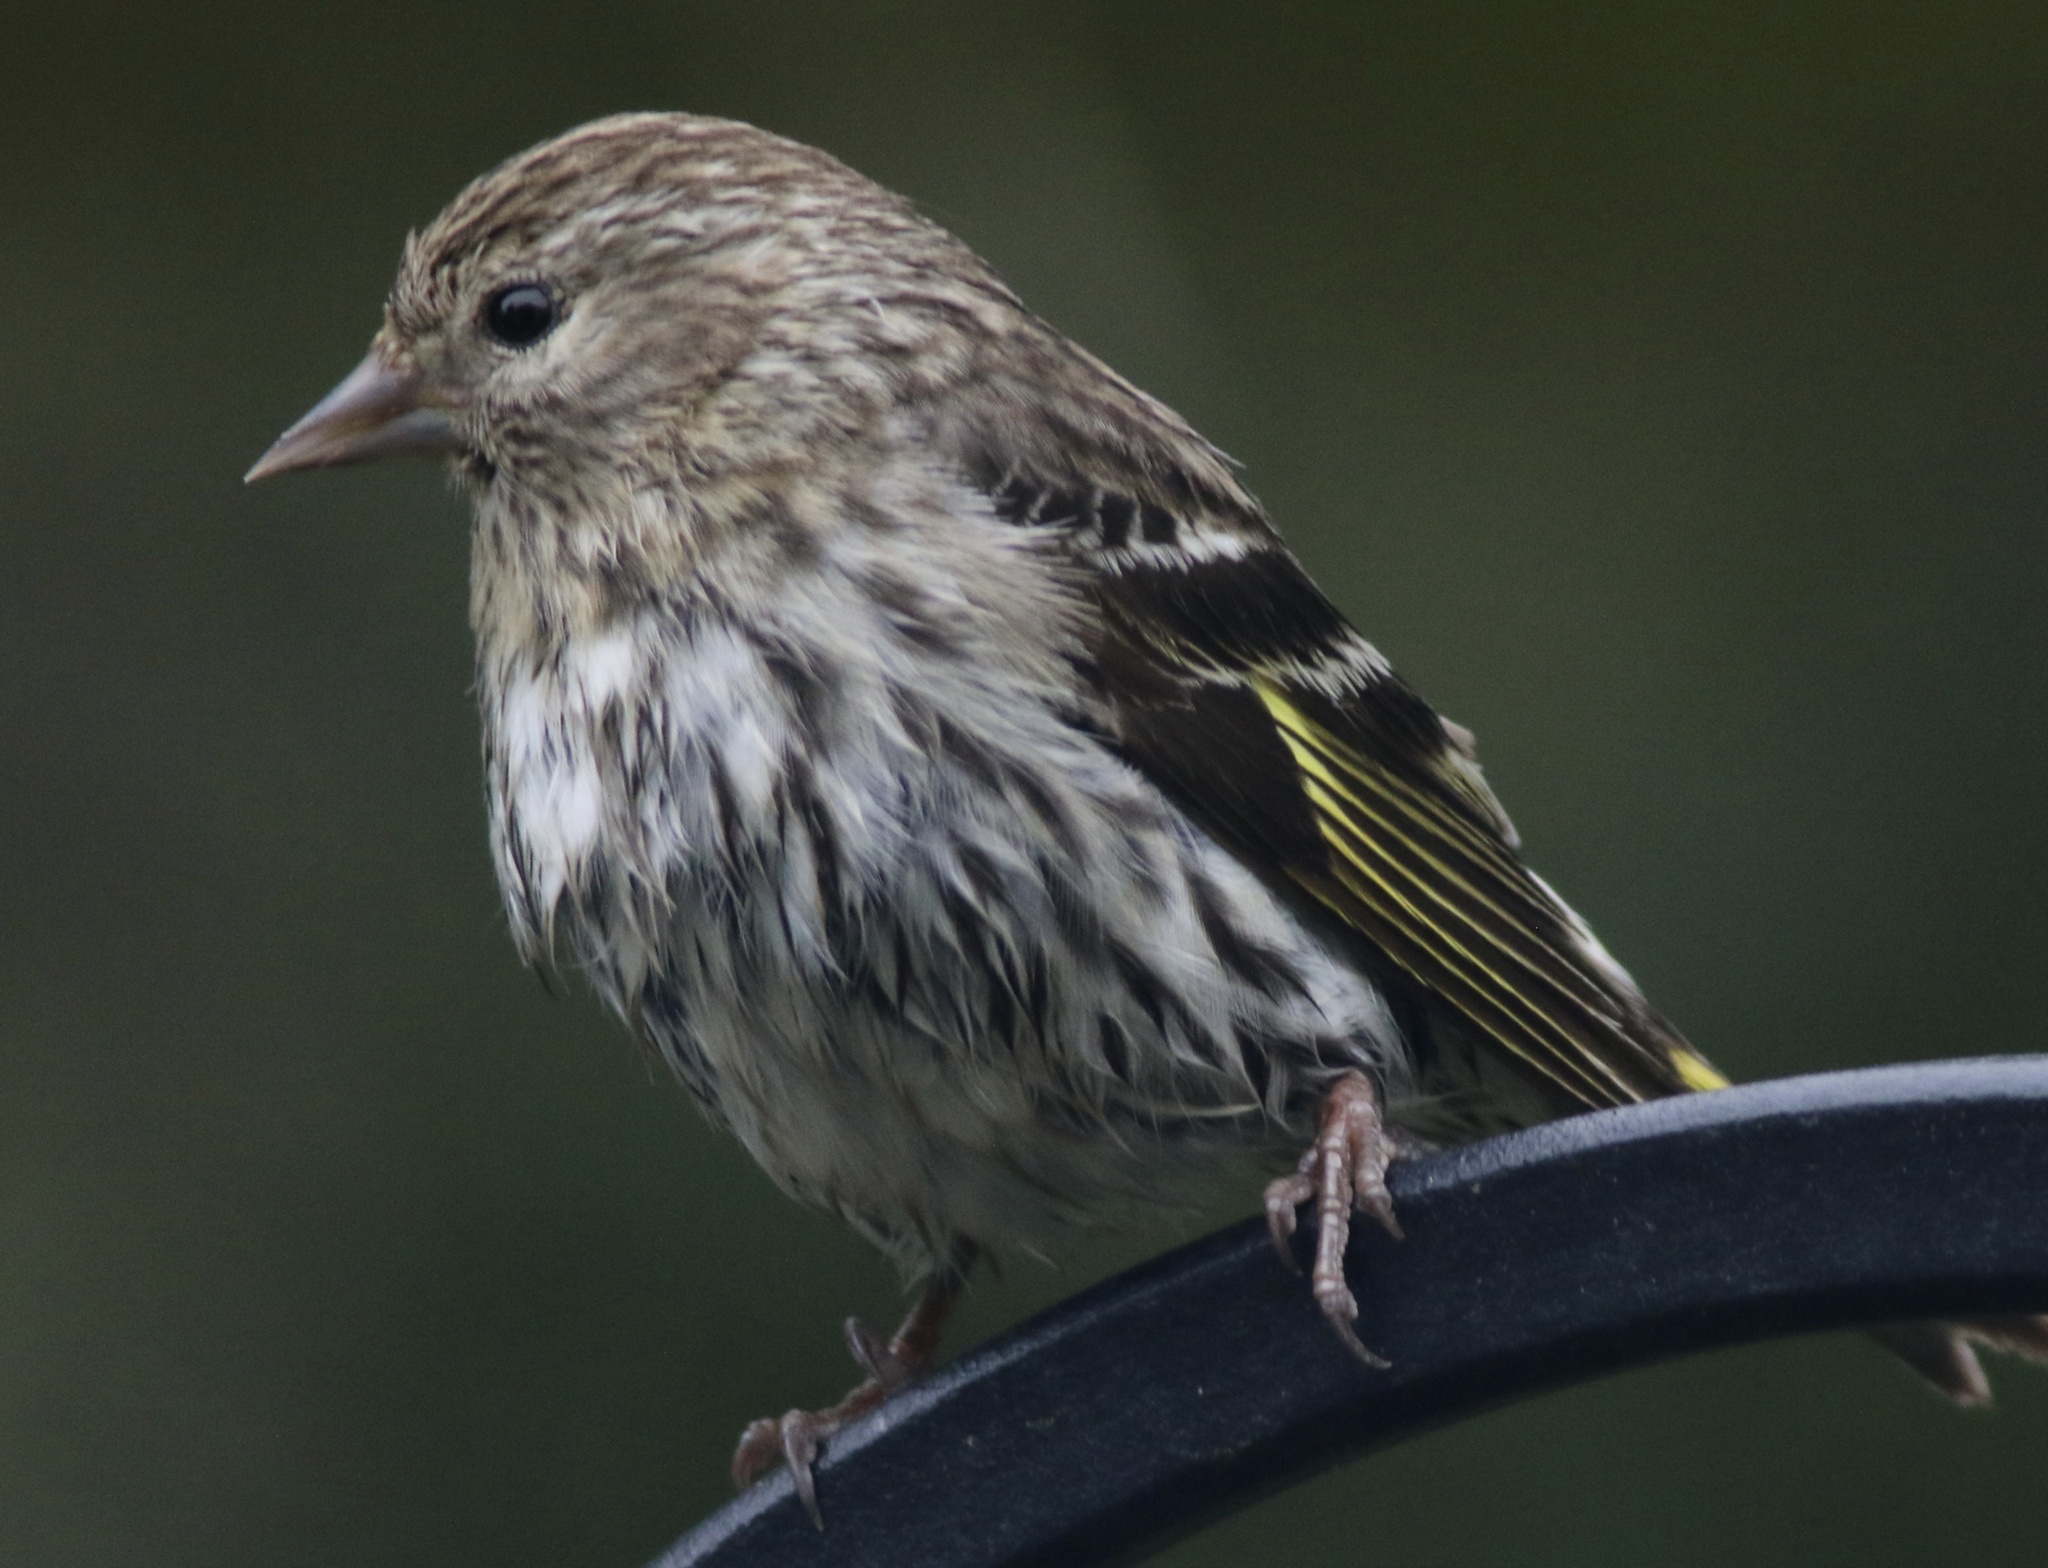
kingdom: Animalia
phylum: Chordata
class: Aves
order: Passeriformes
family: Fringillidae
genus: Spinus
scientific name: Spinus pinus
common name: Pine siskin
